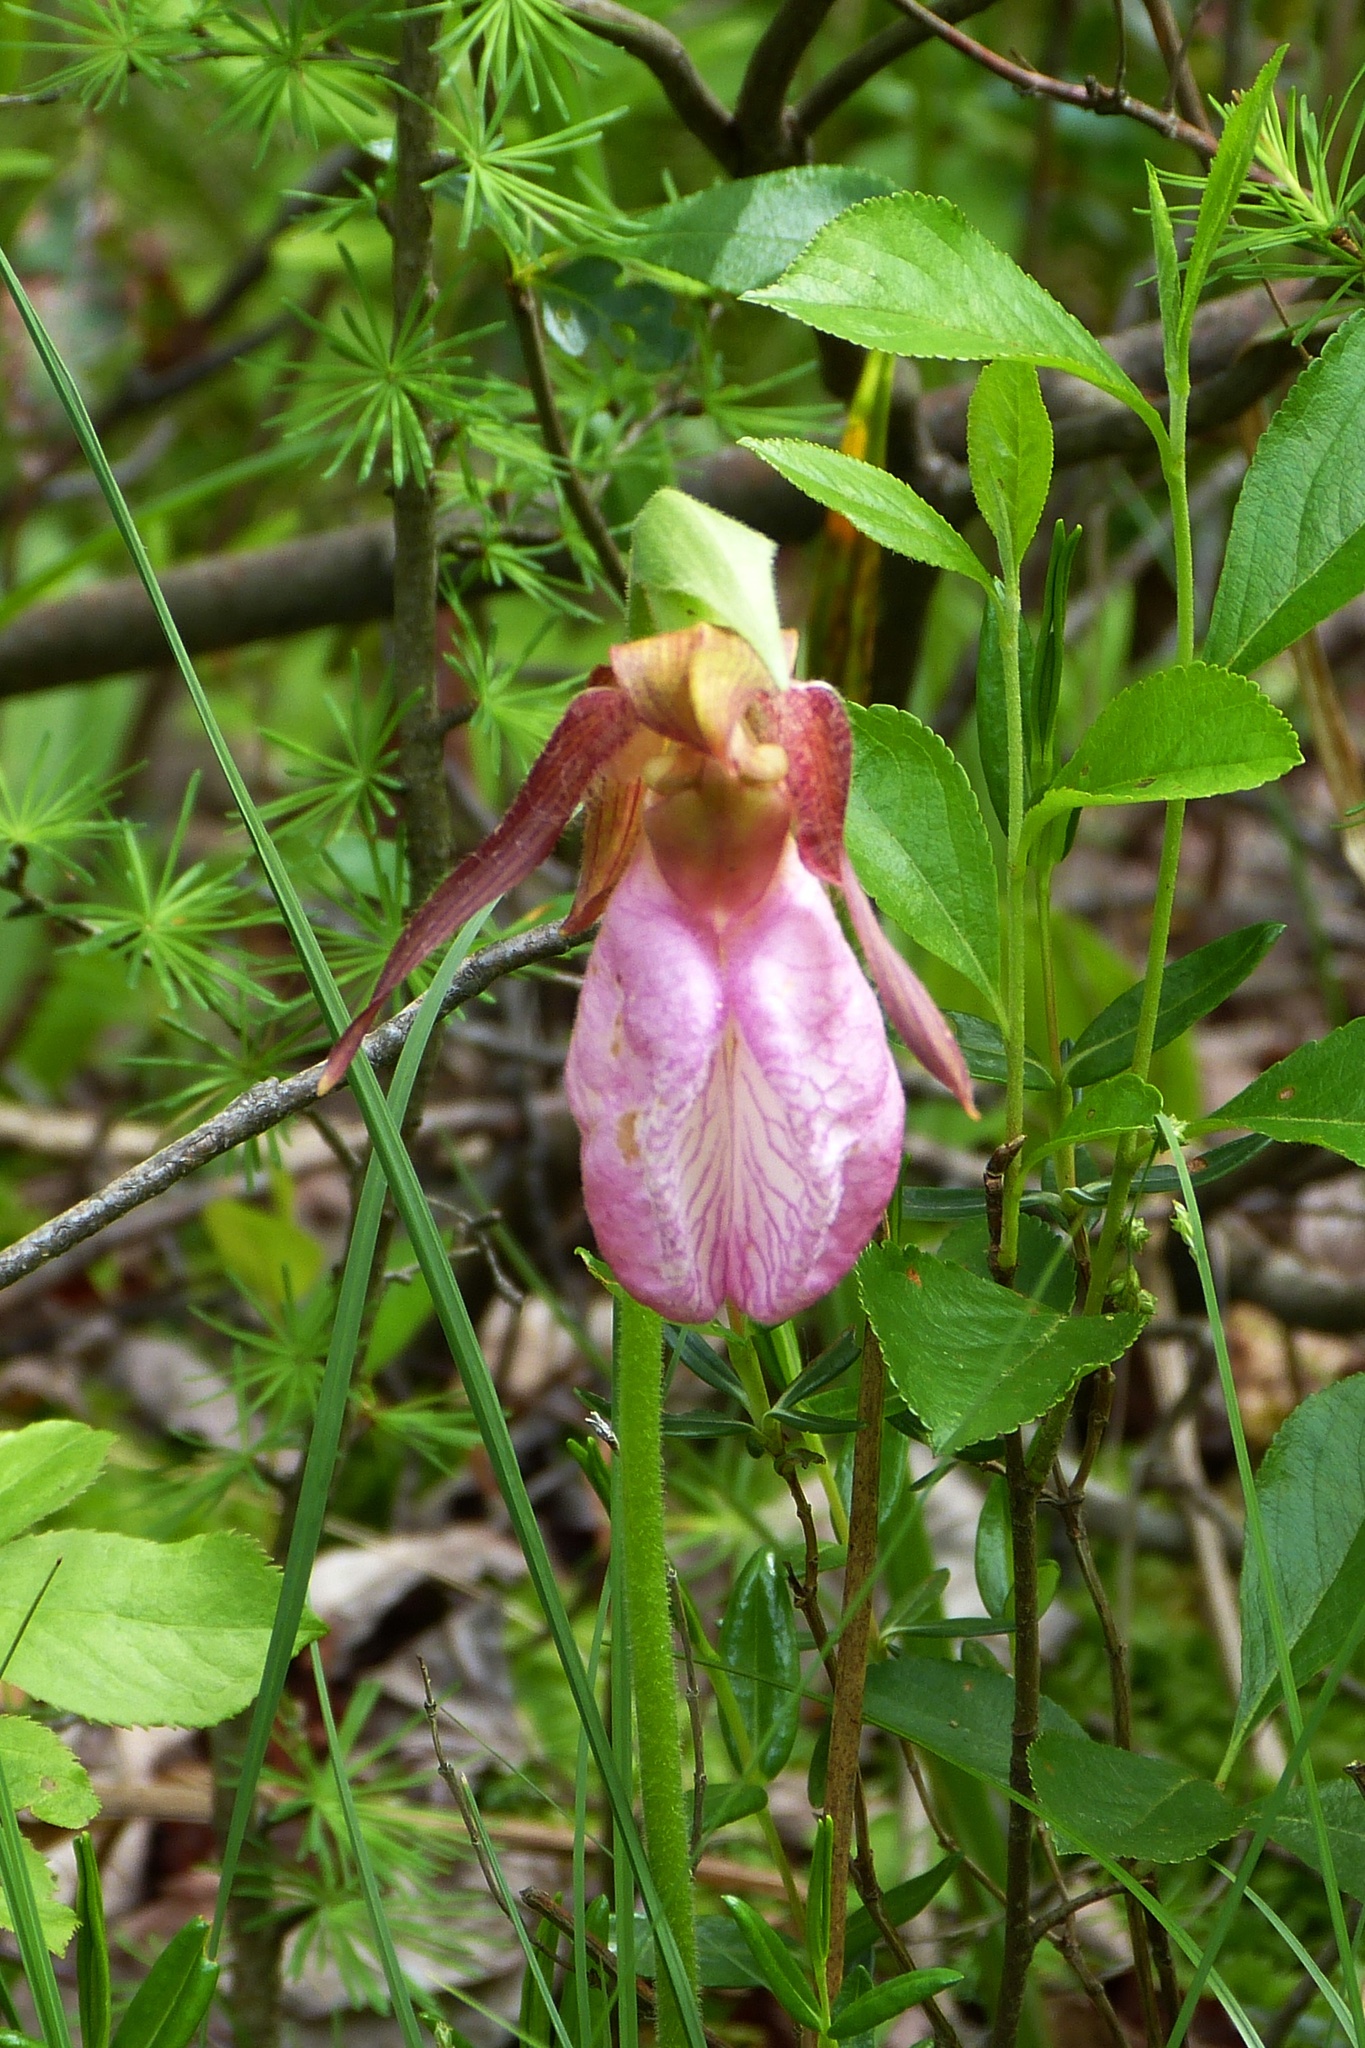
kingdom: Plantae
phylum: Tracheophyta
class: Liliopsida
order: Asparagales
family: Orchidaceae
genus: Cypripedium
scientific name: Cypripedium acaule
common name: Pink lady's-slipper
